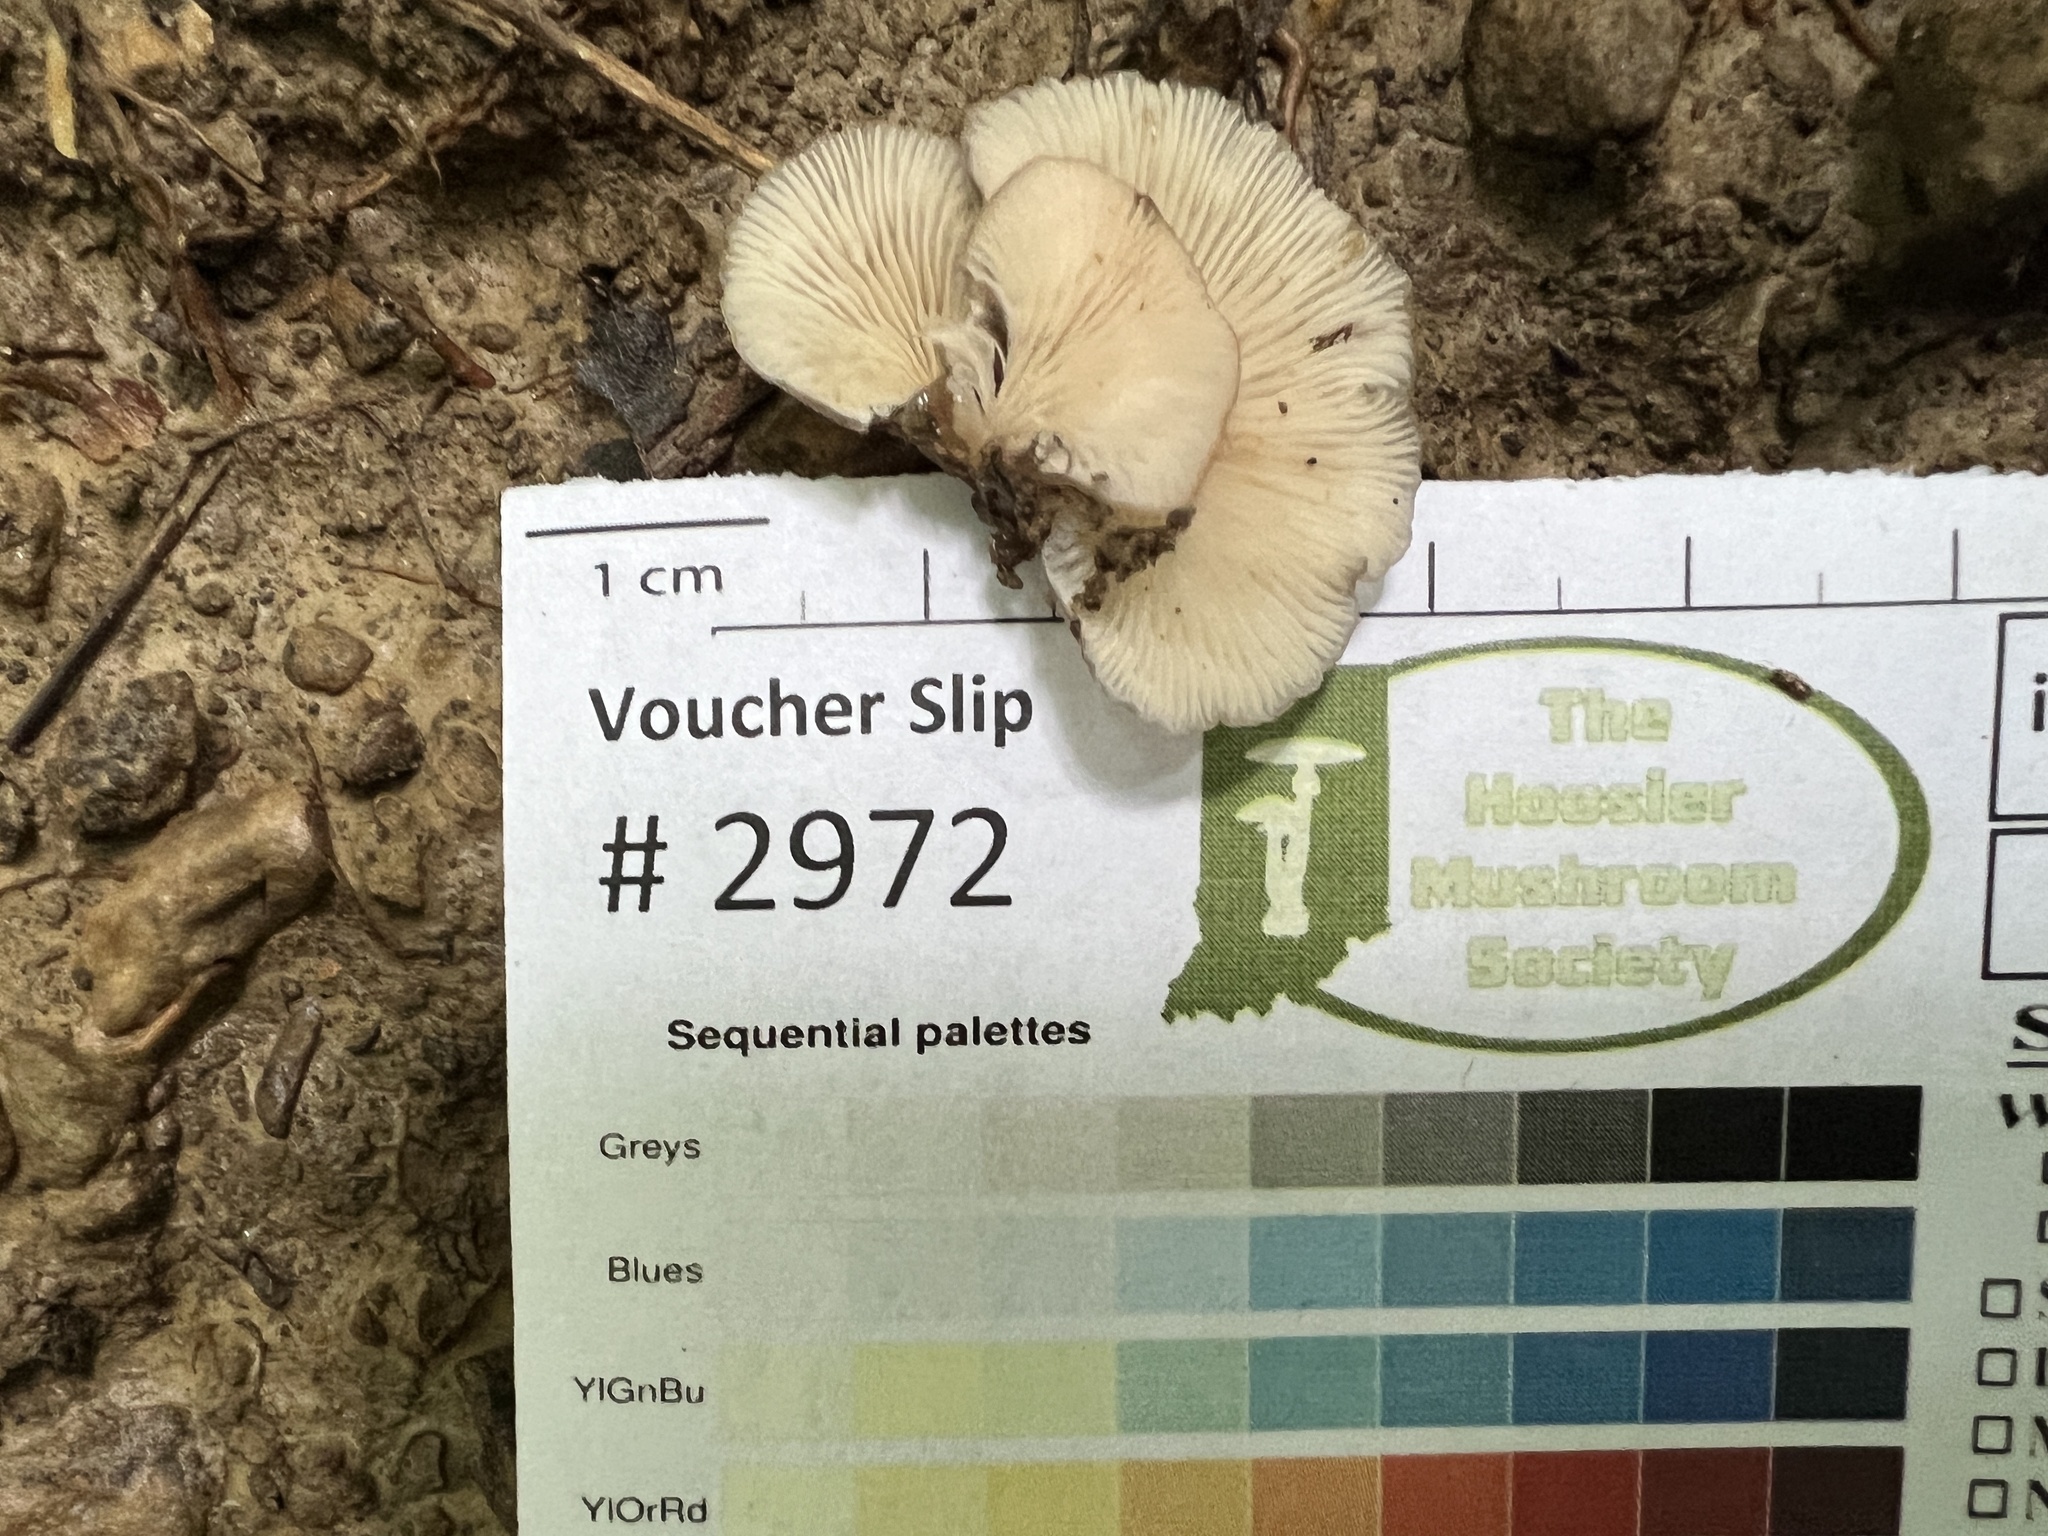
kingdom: Fungi
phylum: Basidiomycota
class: Agaricomycetes
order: Agaricales
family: Pleurotaceae
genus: Hohenbuehelia
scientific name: Hohenbuehelia grisea
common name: Shadowy oysterling
